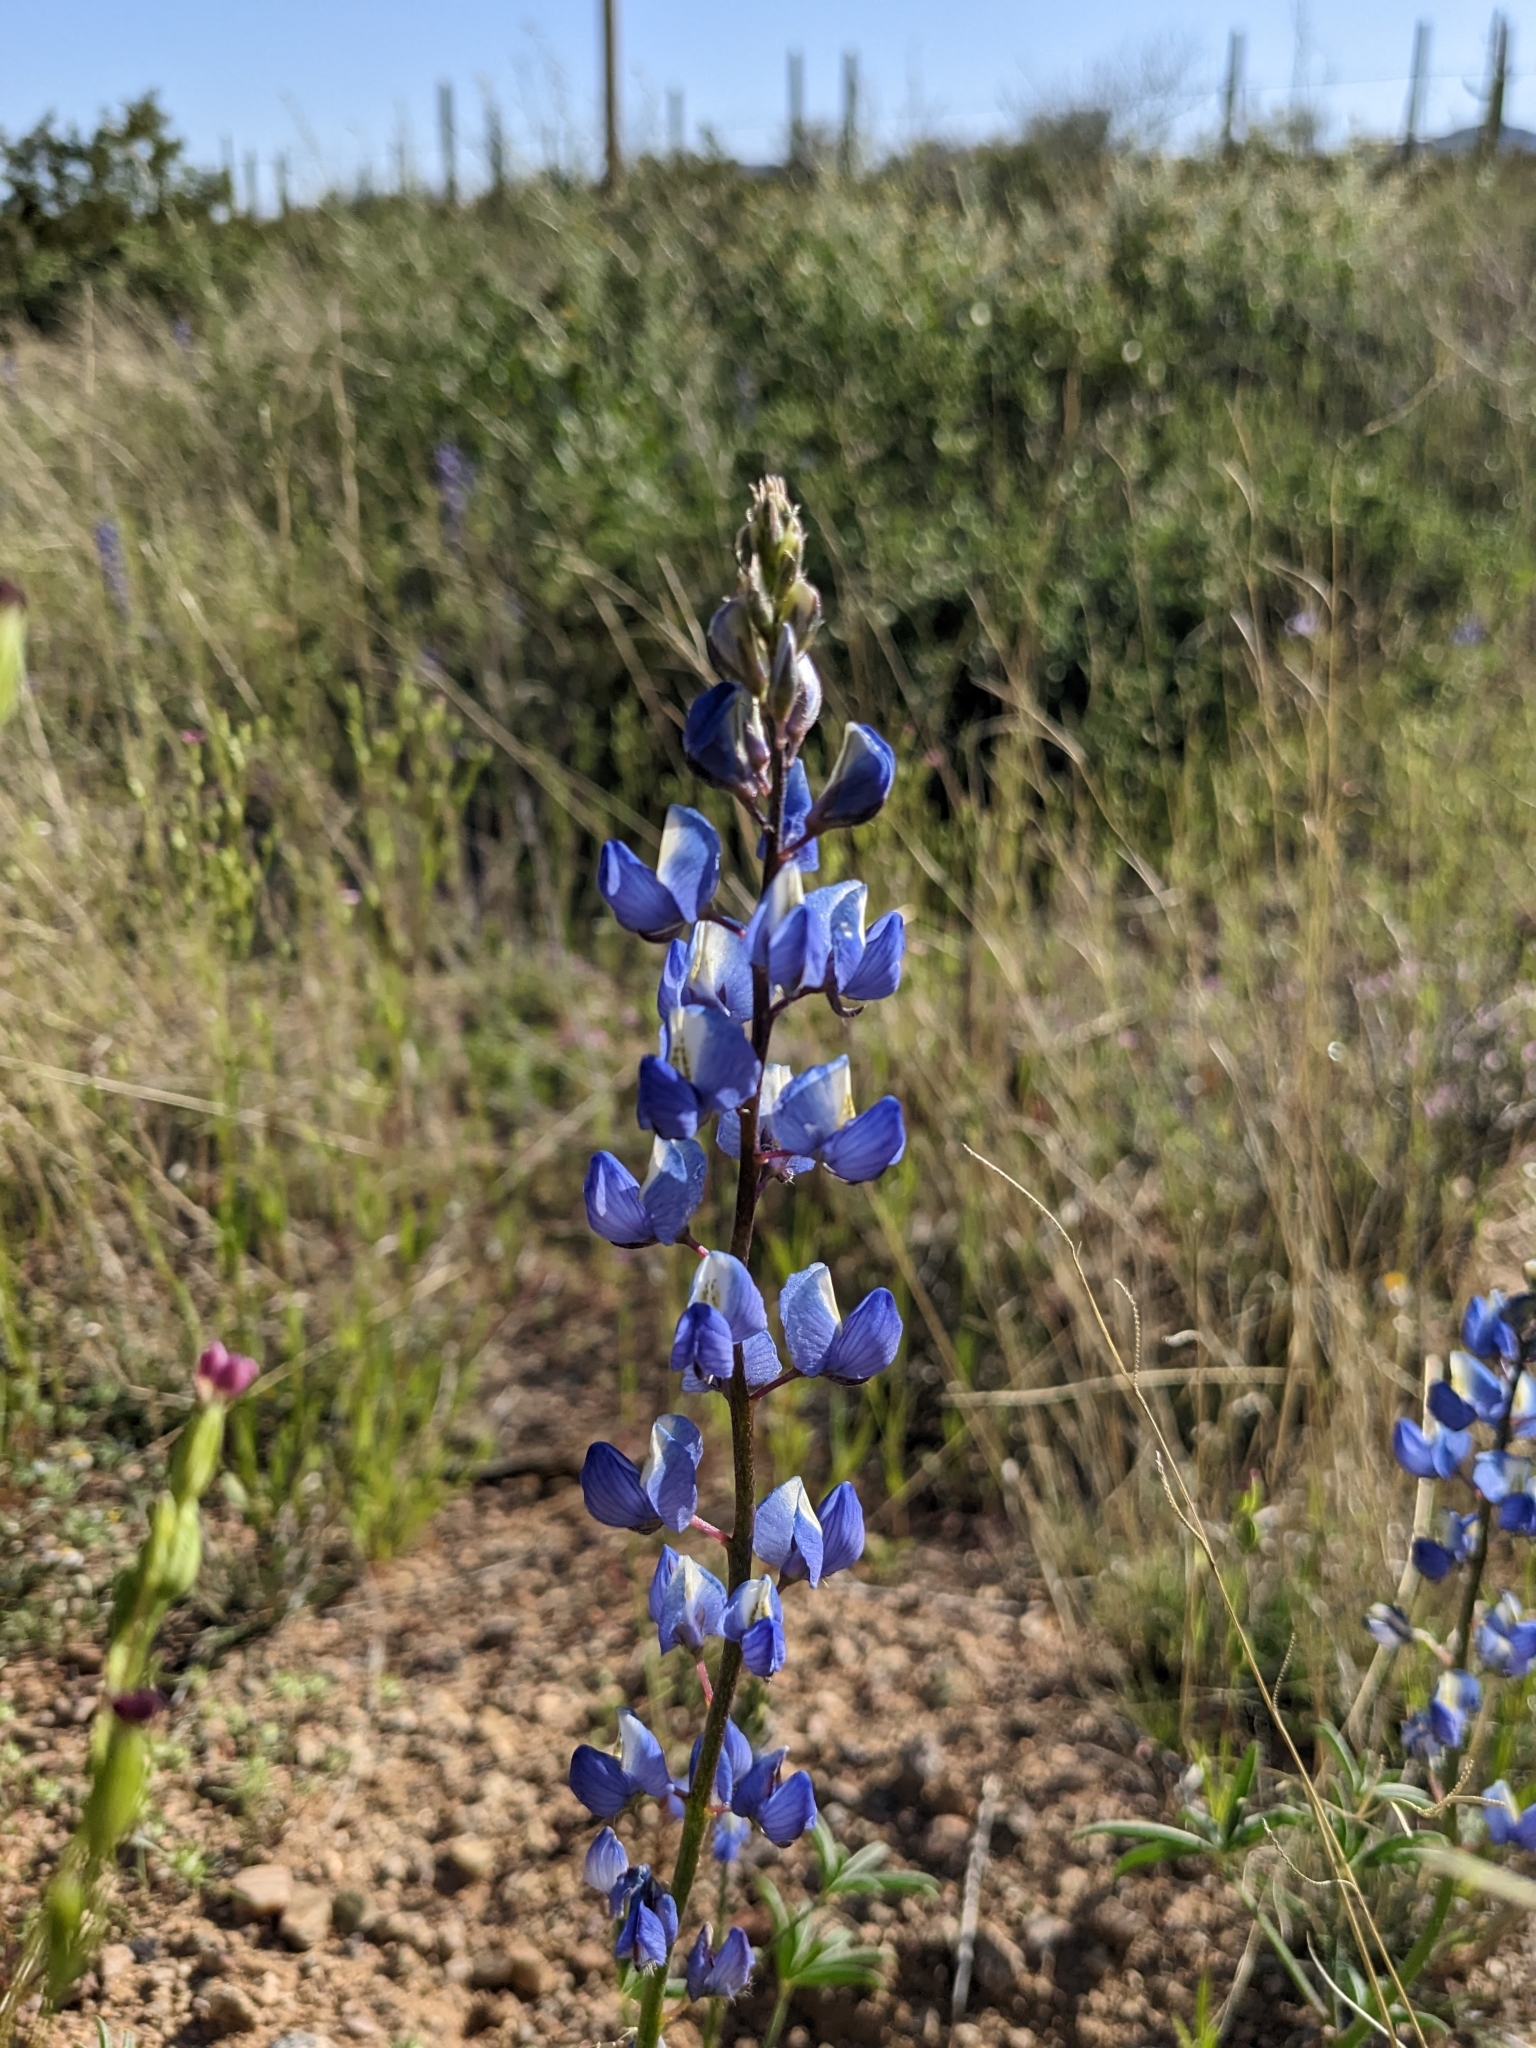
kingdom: Plantae
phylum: Tracheophyta
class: Magnoliopsida
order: Fabales
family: Fabaceae
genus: Lupinus
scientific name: Lupinus sparsiflorus
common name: Coulter's lupine
